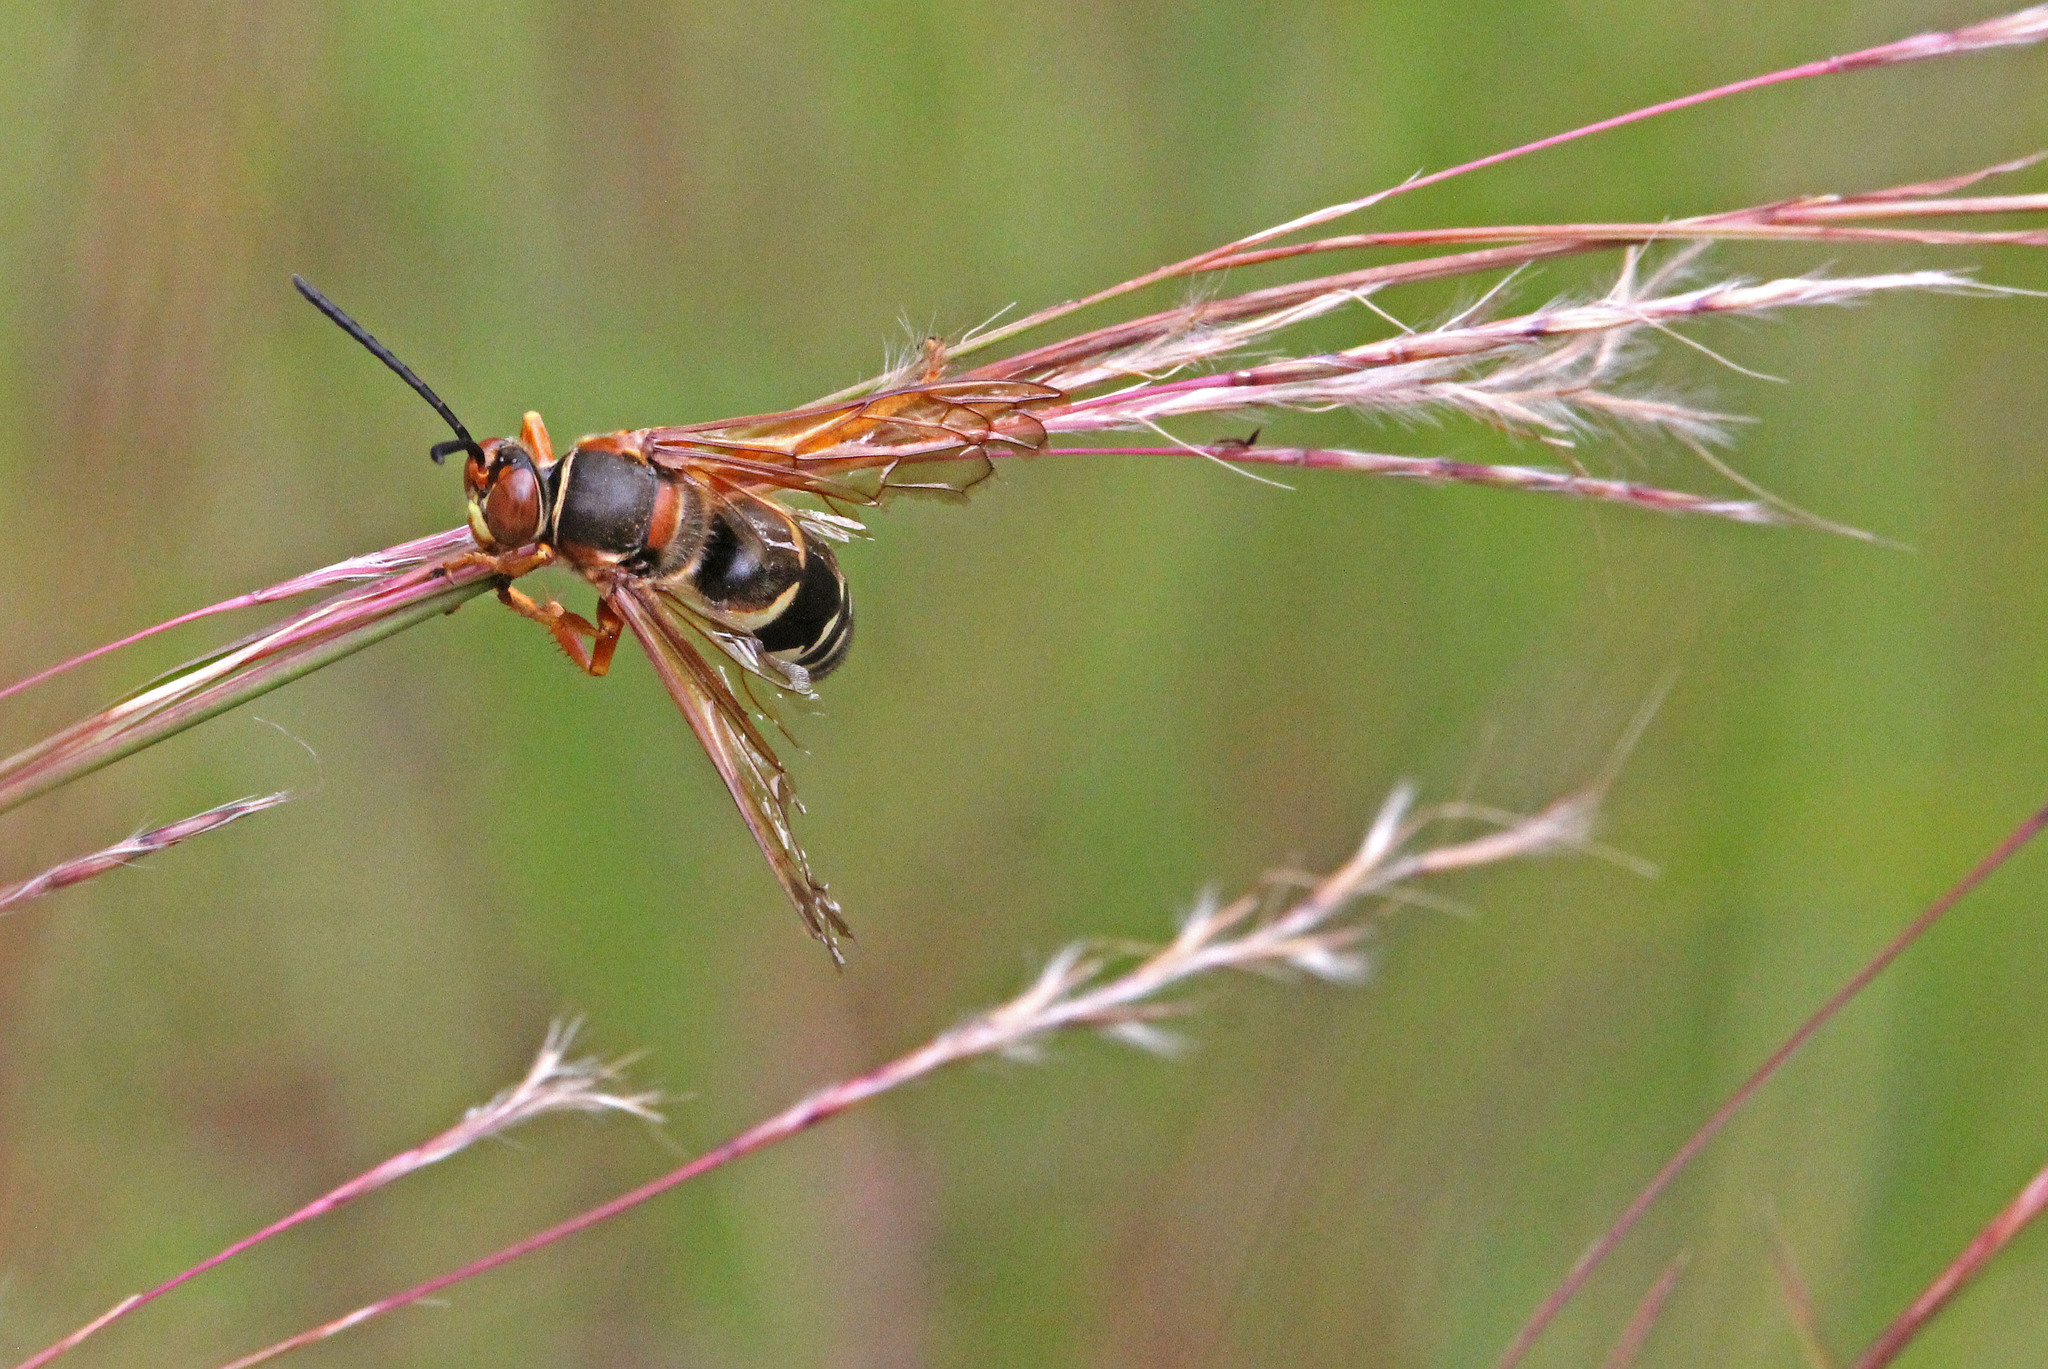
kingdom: Animalia
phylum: Arthropoda
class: Insecta
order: Hymenoptera
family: Crabronidae
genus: Sphecius
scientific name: Sphecius speciosus
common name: Cicada killer
